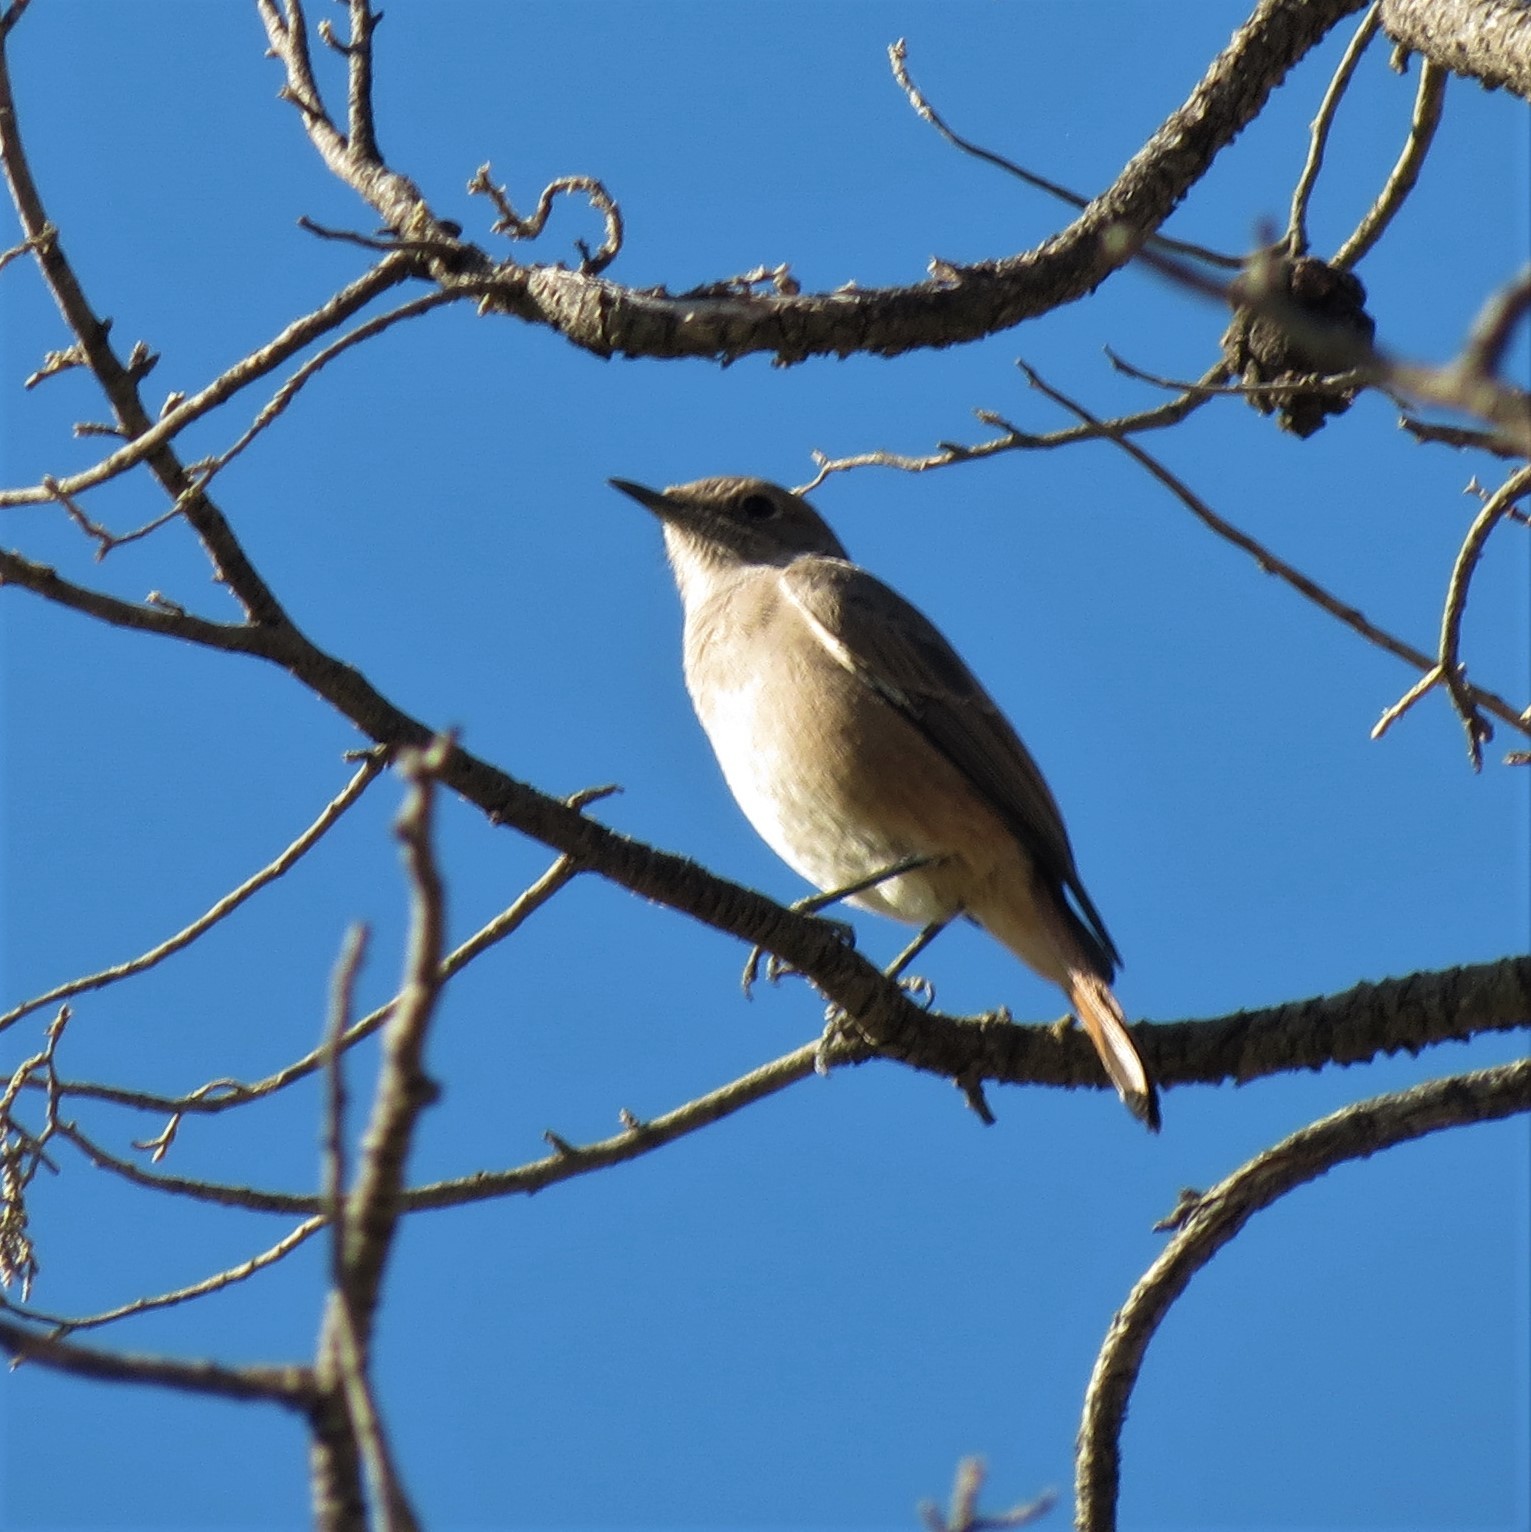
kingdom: Animalia
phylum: Chordata
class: Aves
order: Passeriformes
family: Muscicapidae
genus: Oenanthe
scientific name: Oenanthe familiaris
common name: Familiar chat
